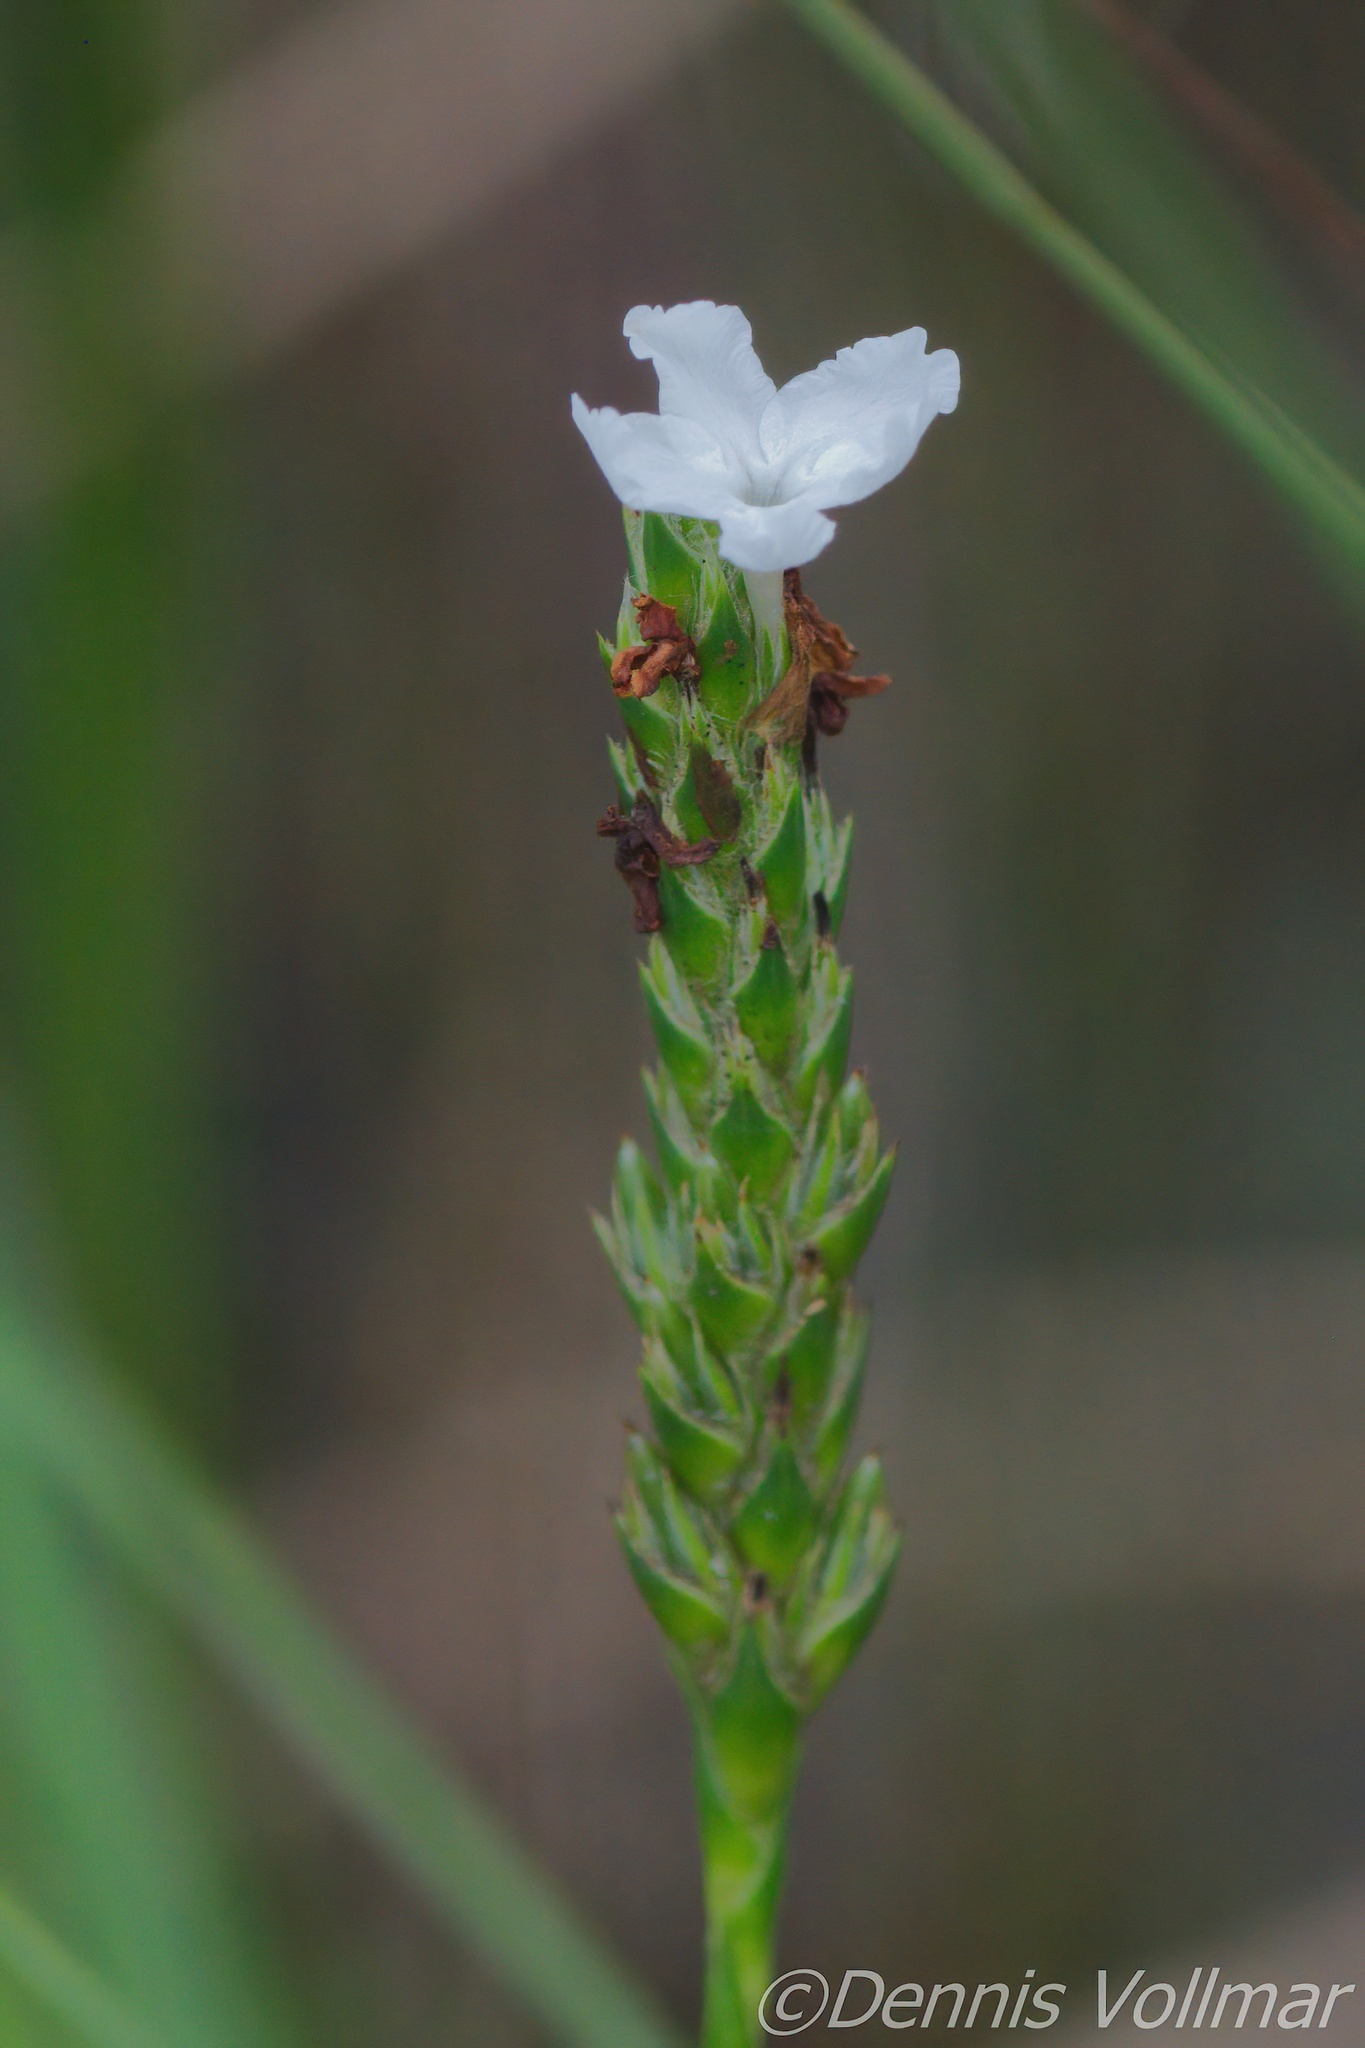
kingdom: Plantae
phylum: Tracheophyta
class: Magnoliopsida
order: Lamiales
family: Acanthaceae
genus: Elytraria
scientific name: Elytraria caroliniensis
